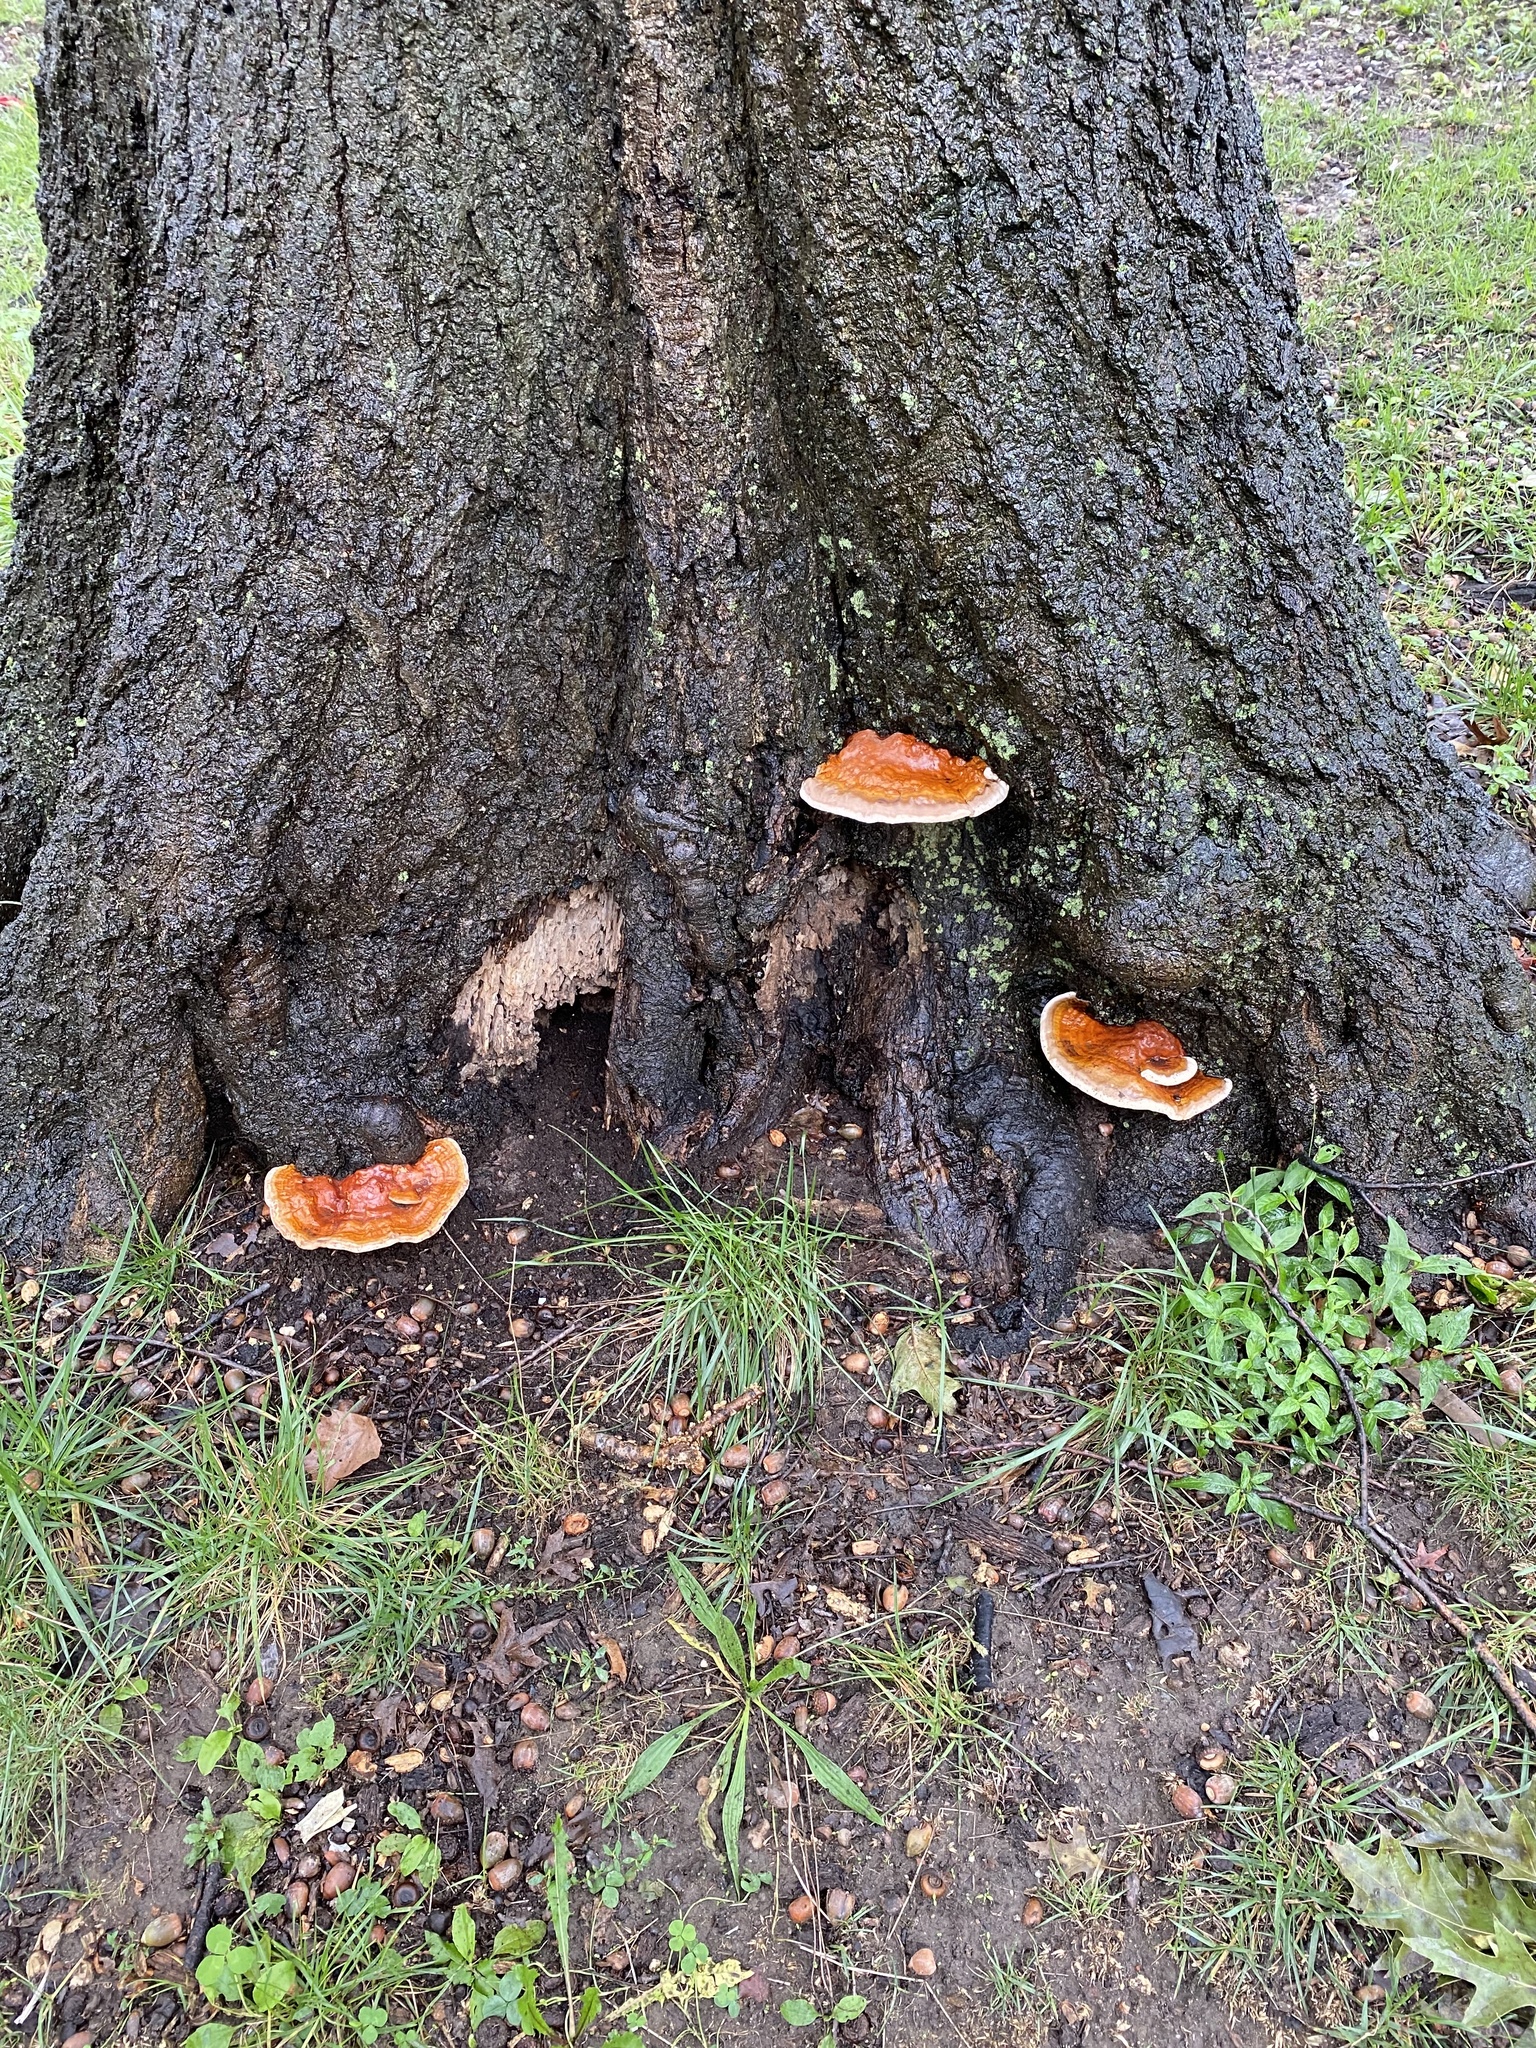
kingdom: Fungi
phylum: Basidiomycota
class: Agaricomycetes
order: Polyporales
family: Polyporaceae
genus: Ganoderma
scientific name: Ganoderma resinaceum
